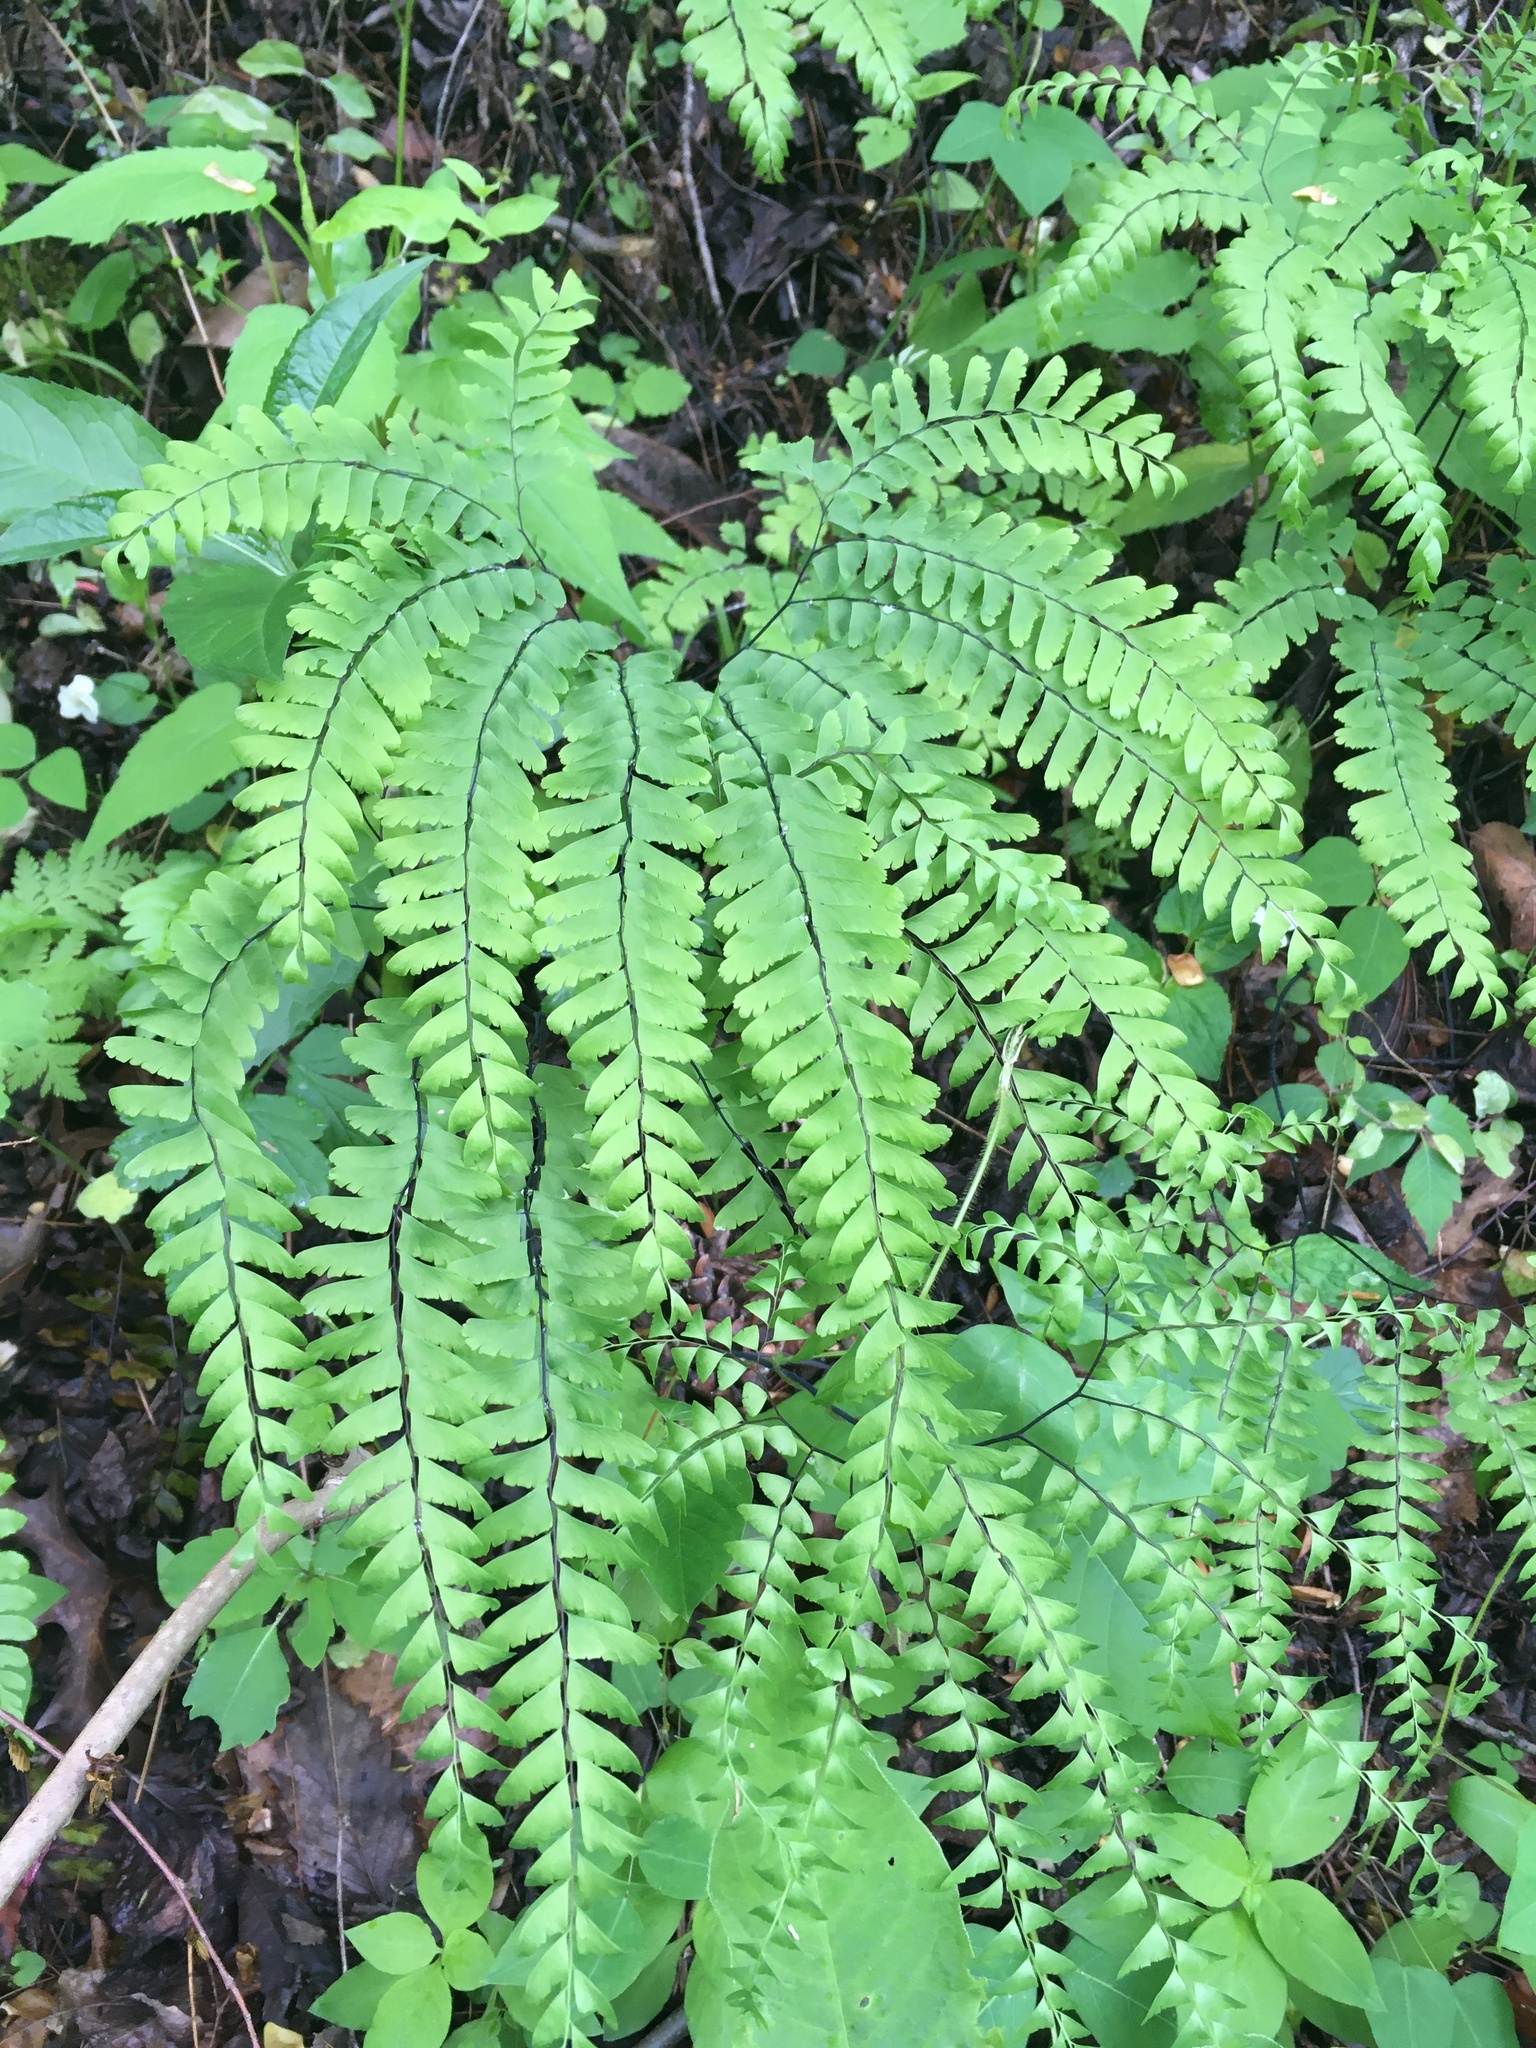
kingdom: Plantae
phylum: Tracheophyta
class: Polypodiopsida
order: Polypodiales
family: Pteridaceae
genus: Adiantum
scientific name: Adiantum pedatum
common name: Five-finger fern
